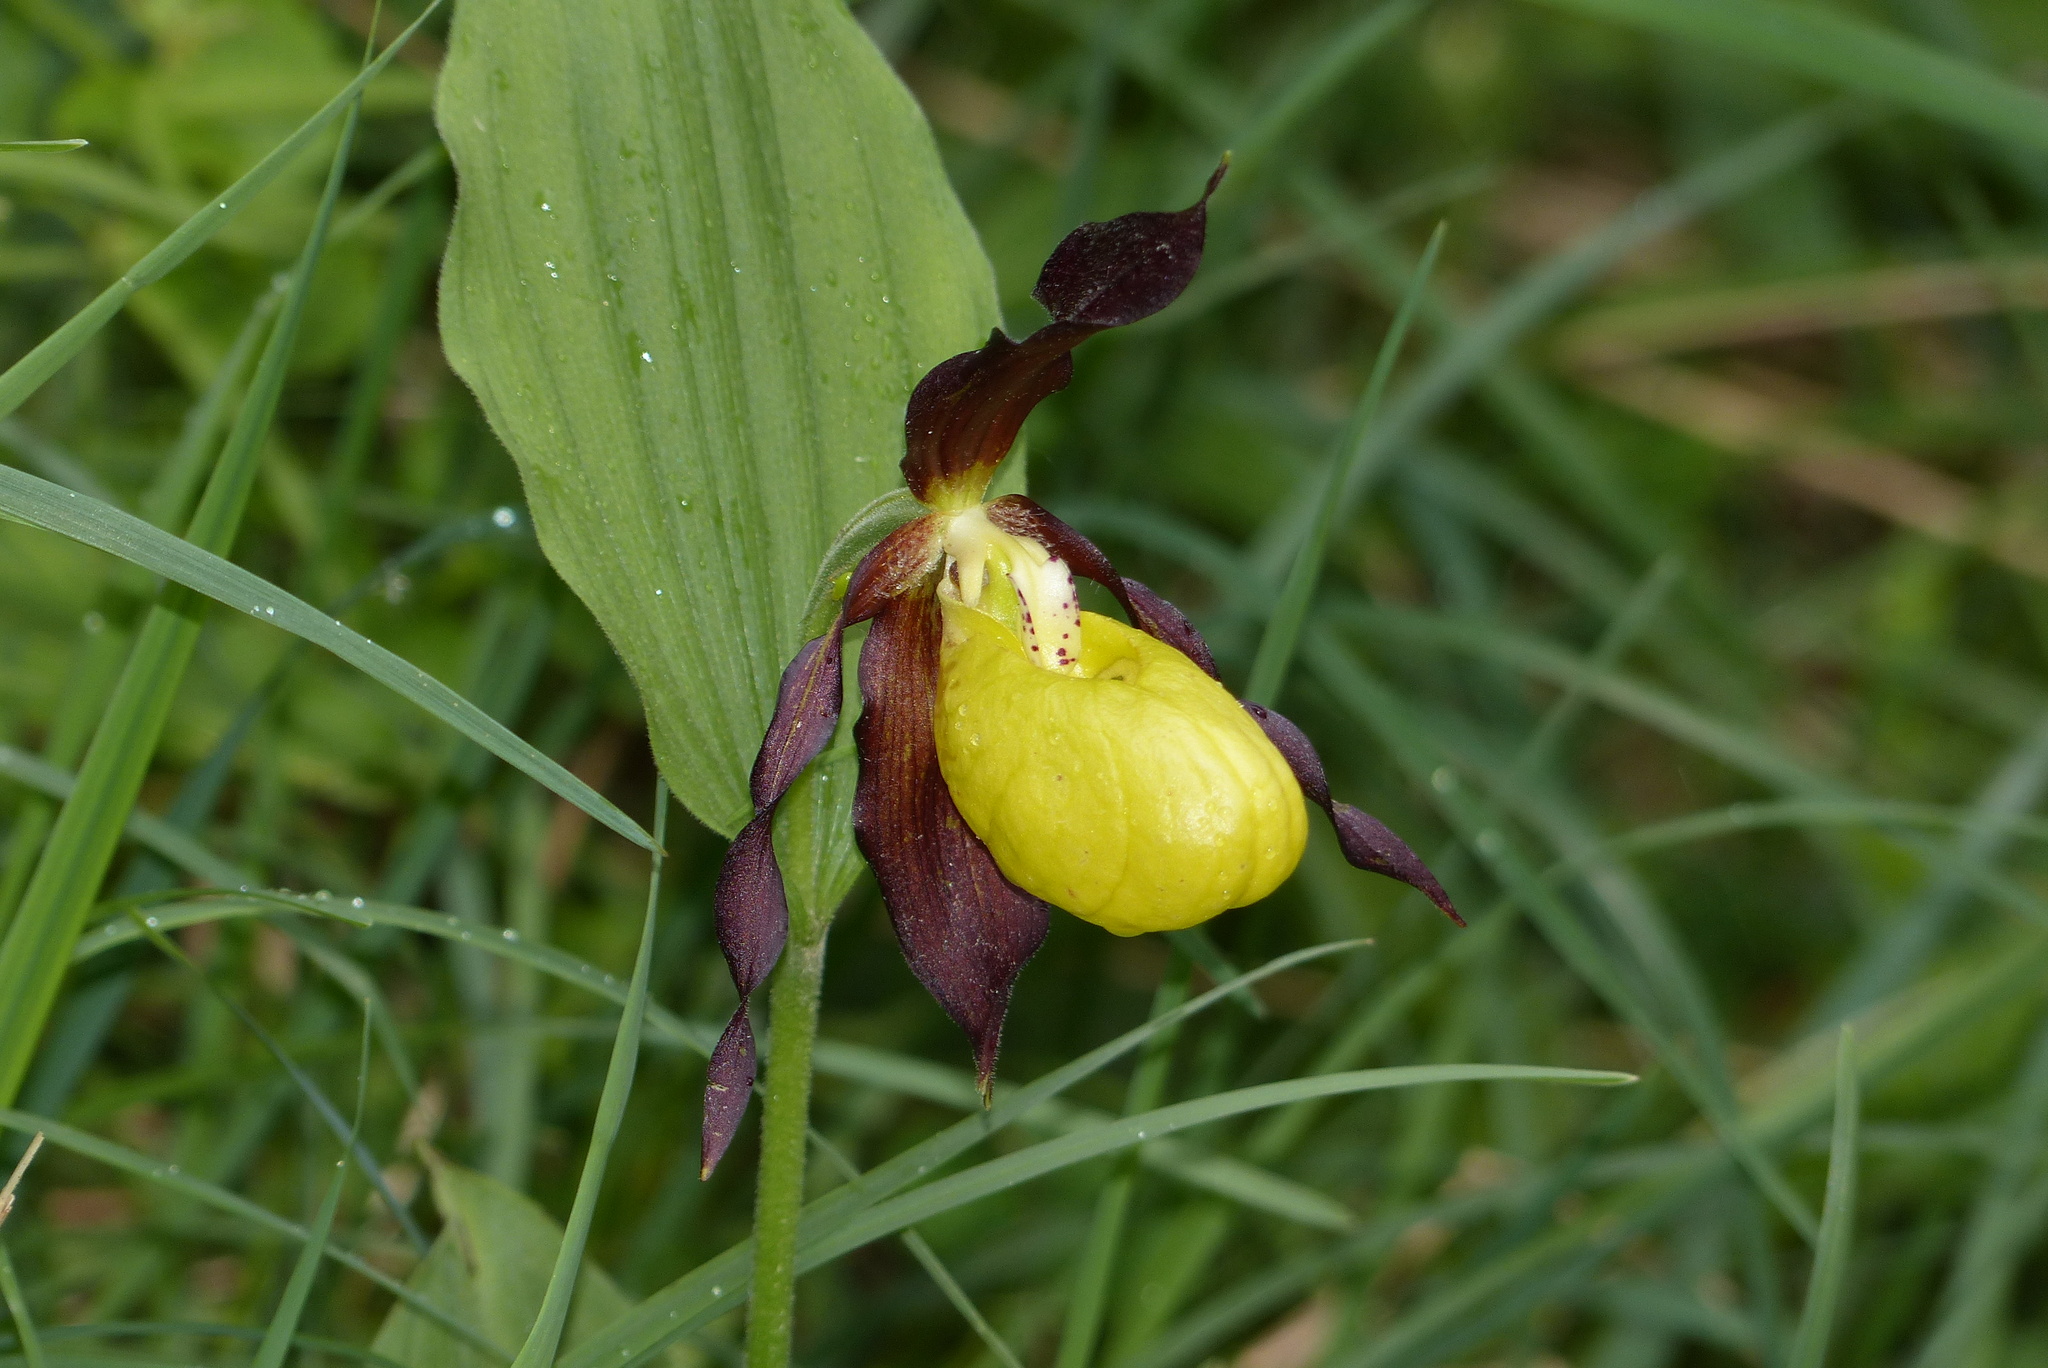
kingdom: Plantae
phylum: Tracheophyta
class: Liliopsida
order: Asparagales
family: Orchidaceae
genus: Cypripedium
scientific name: Cypripedium calceolus
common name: Lady's-slipper
